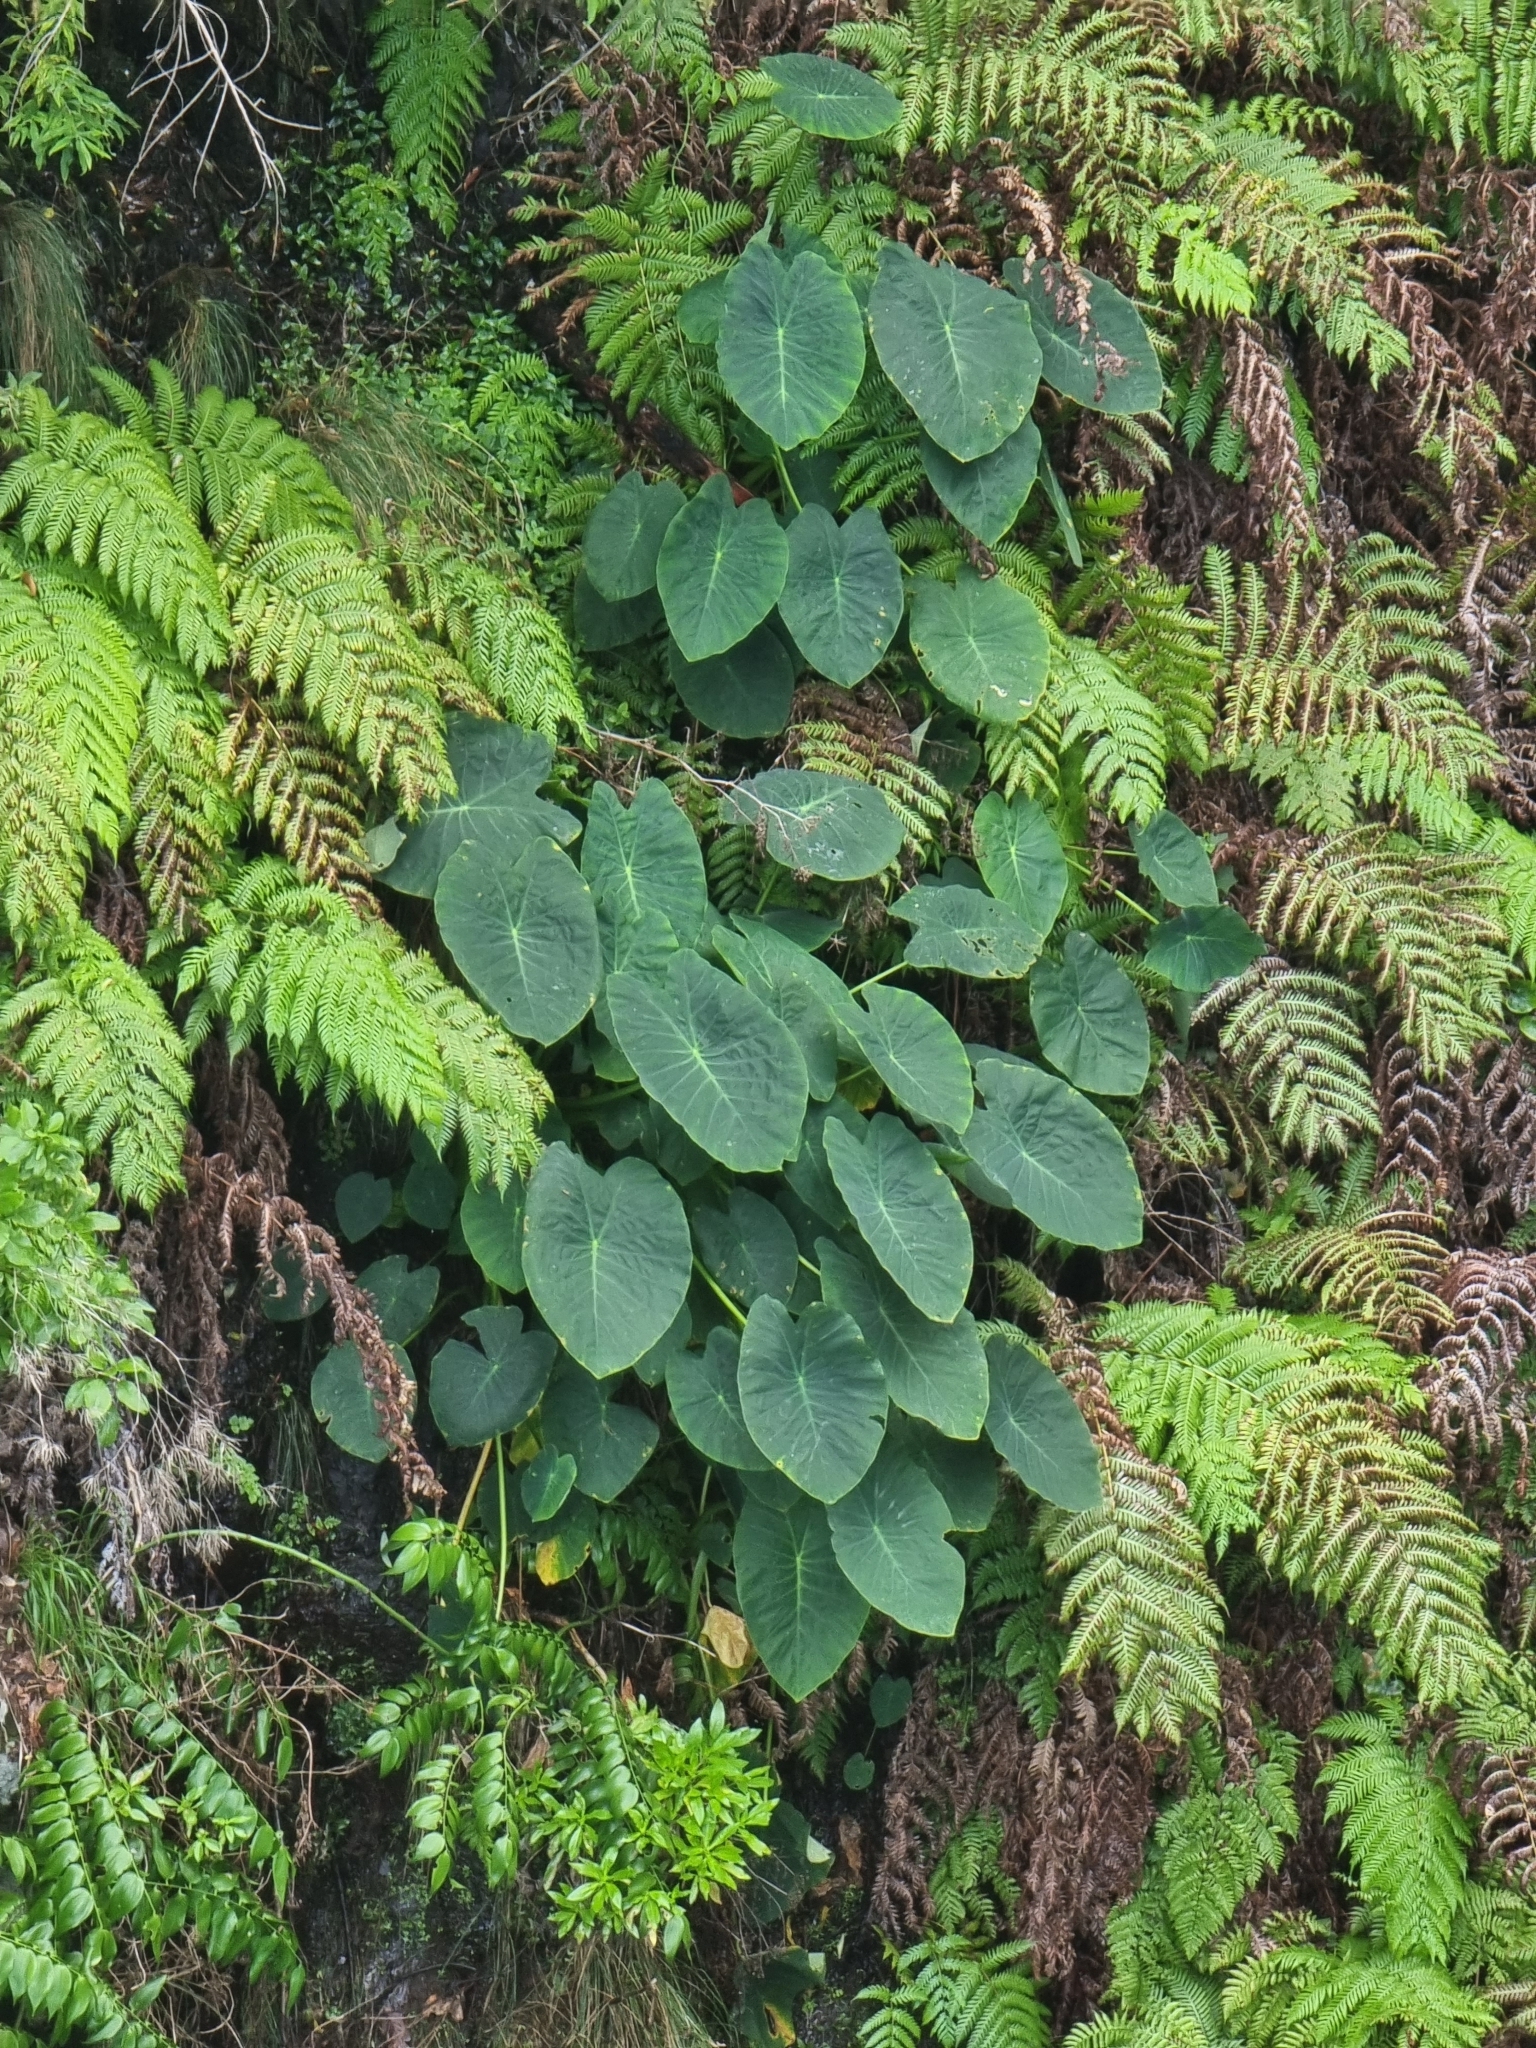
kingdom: Plantae
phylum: Tracheophyta
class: Liliopsida
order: Alismatales
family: Araceae
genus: Colocasia
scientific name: Colocasia esculenta
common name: Taro
